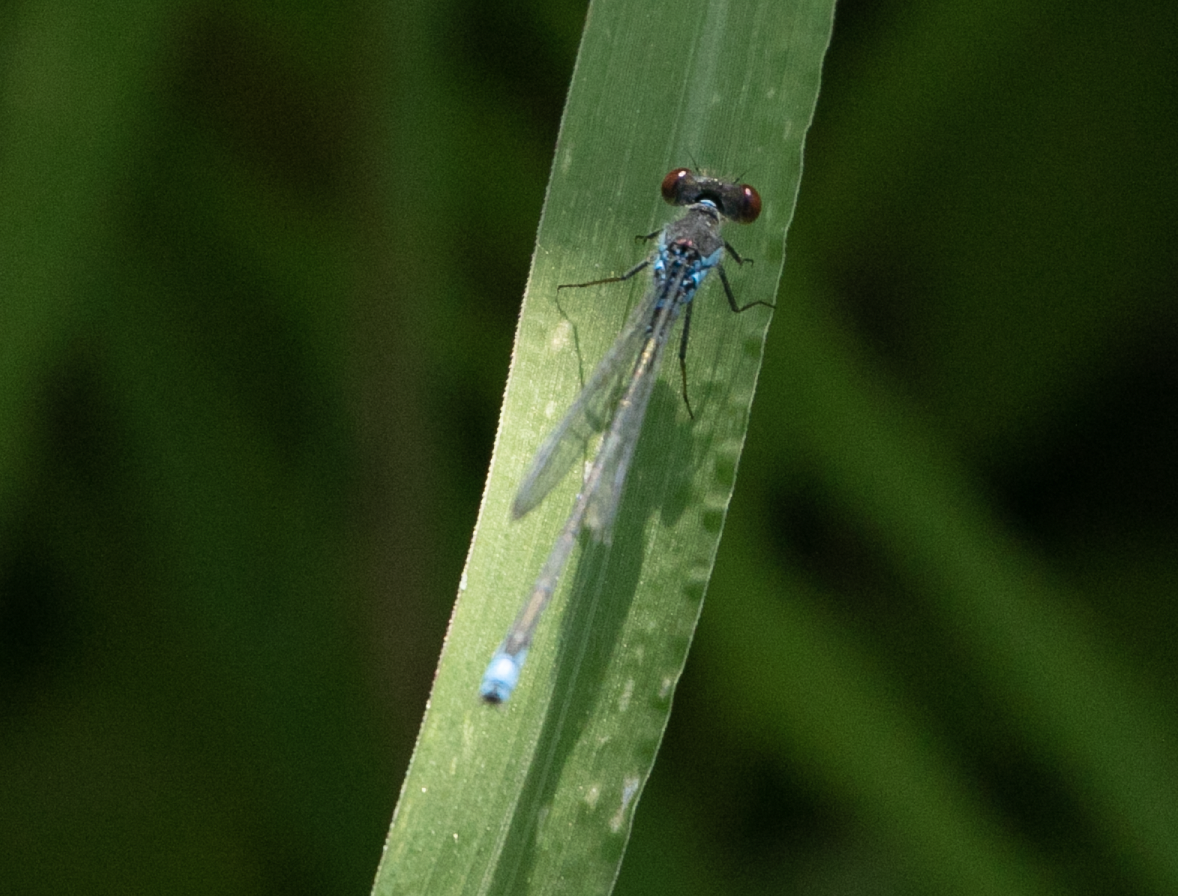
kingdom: Animalia
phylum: Arthropoda
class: Insecta
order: Odonata
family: Coenagrionidae
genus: Erythromma
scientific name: Erythromma viridulum
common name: Small red-eyed damselfly
